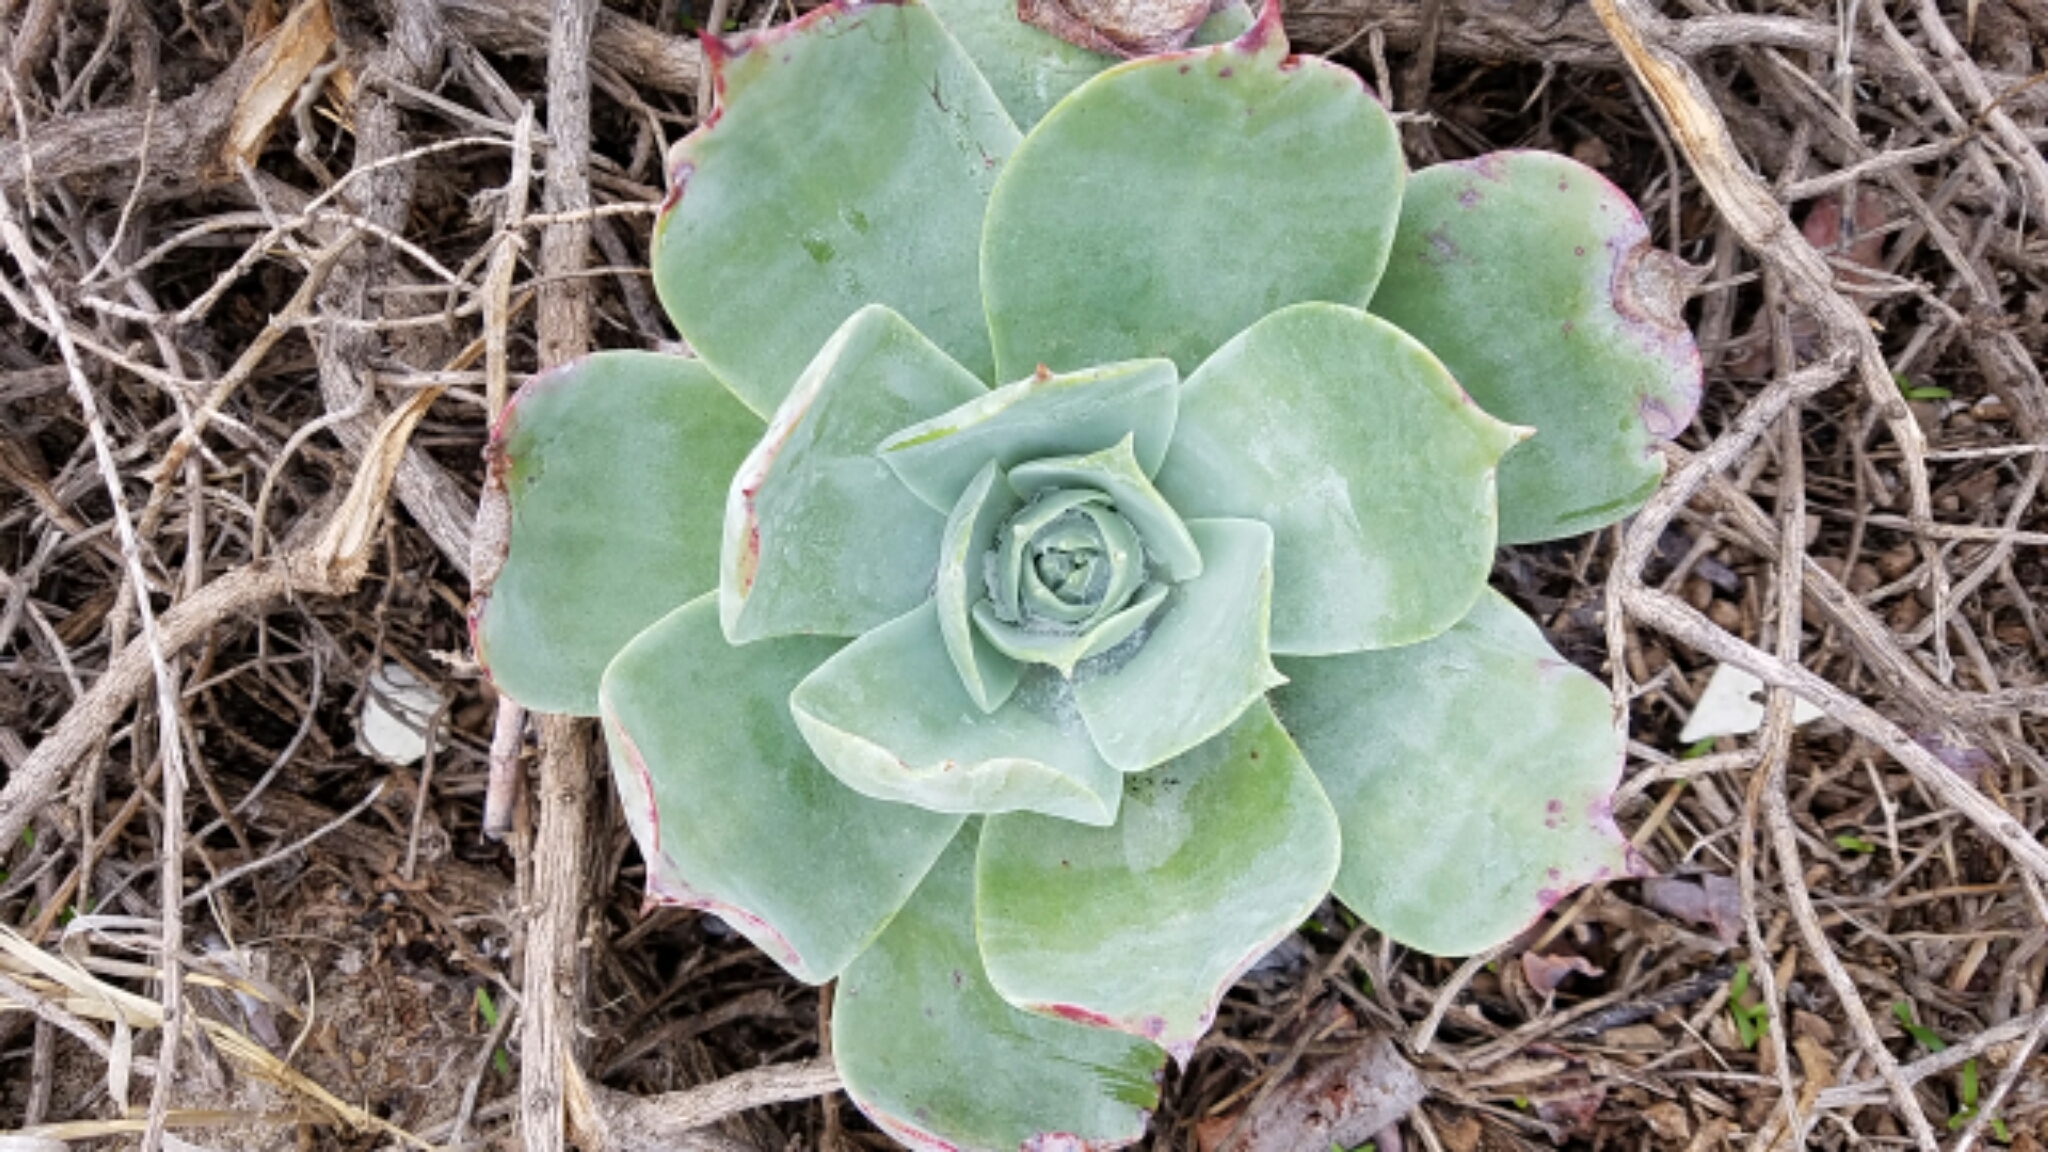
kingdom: Plantae
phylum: Tracheophyta
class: Magnoliopsida
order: Saxifragales
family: Crassulaceae
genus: Dudleya
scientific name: Dudleya pulverulenta
